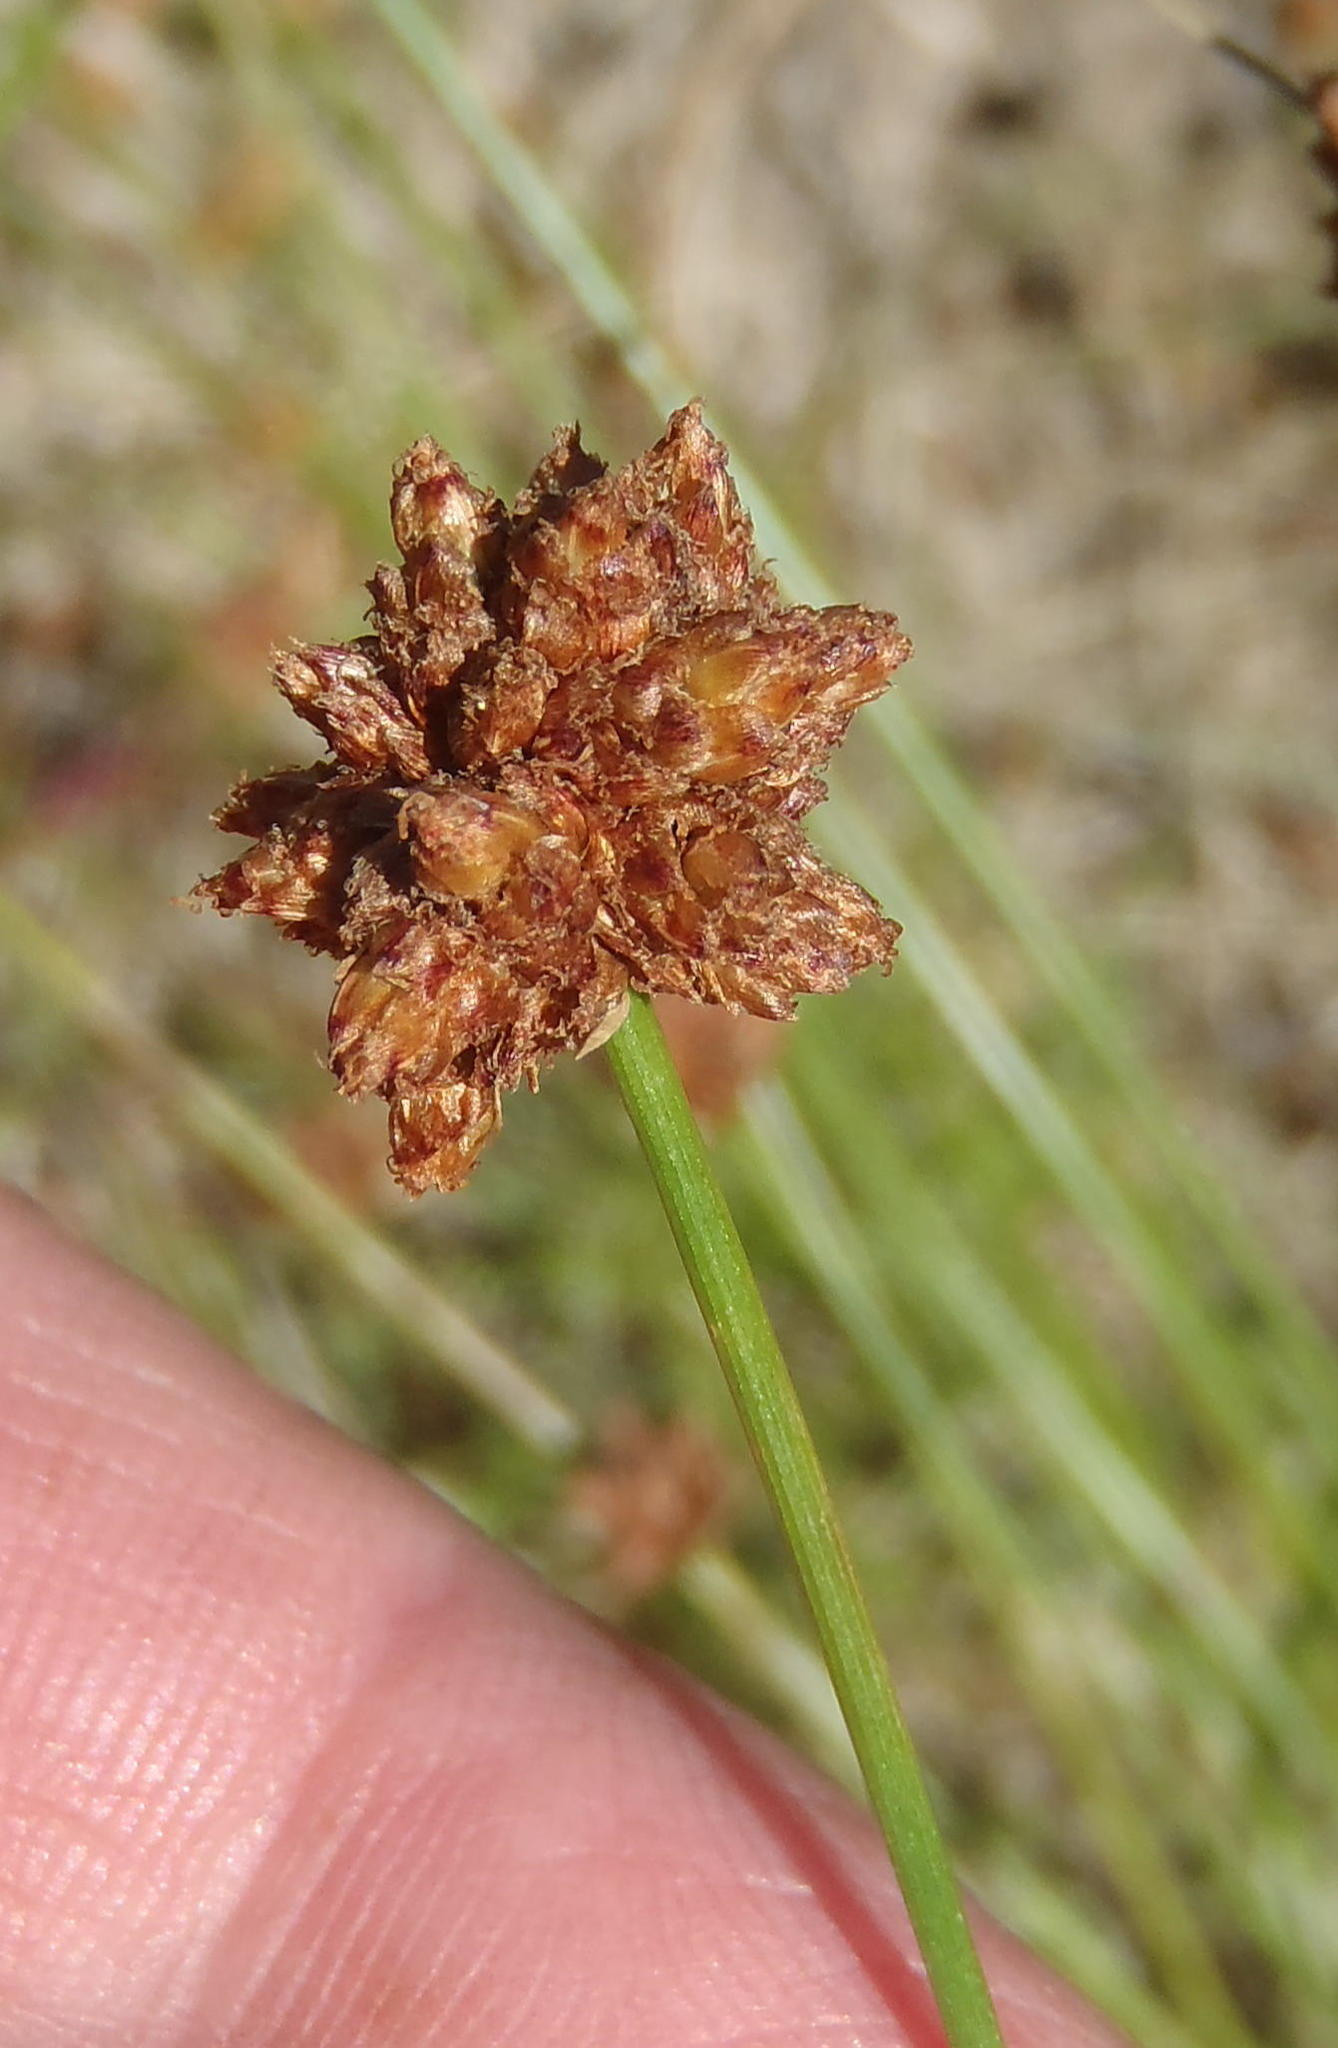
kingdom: Plantae
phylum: Tracheophyta
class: Liliopsida
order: Poales
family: Cyperaceae
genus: Ficinia
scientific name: Ficinia laciniata
